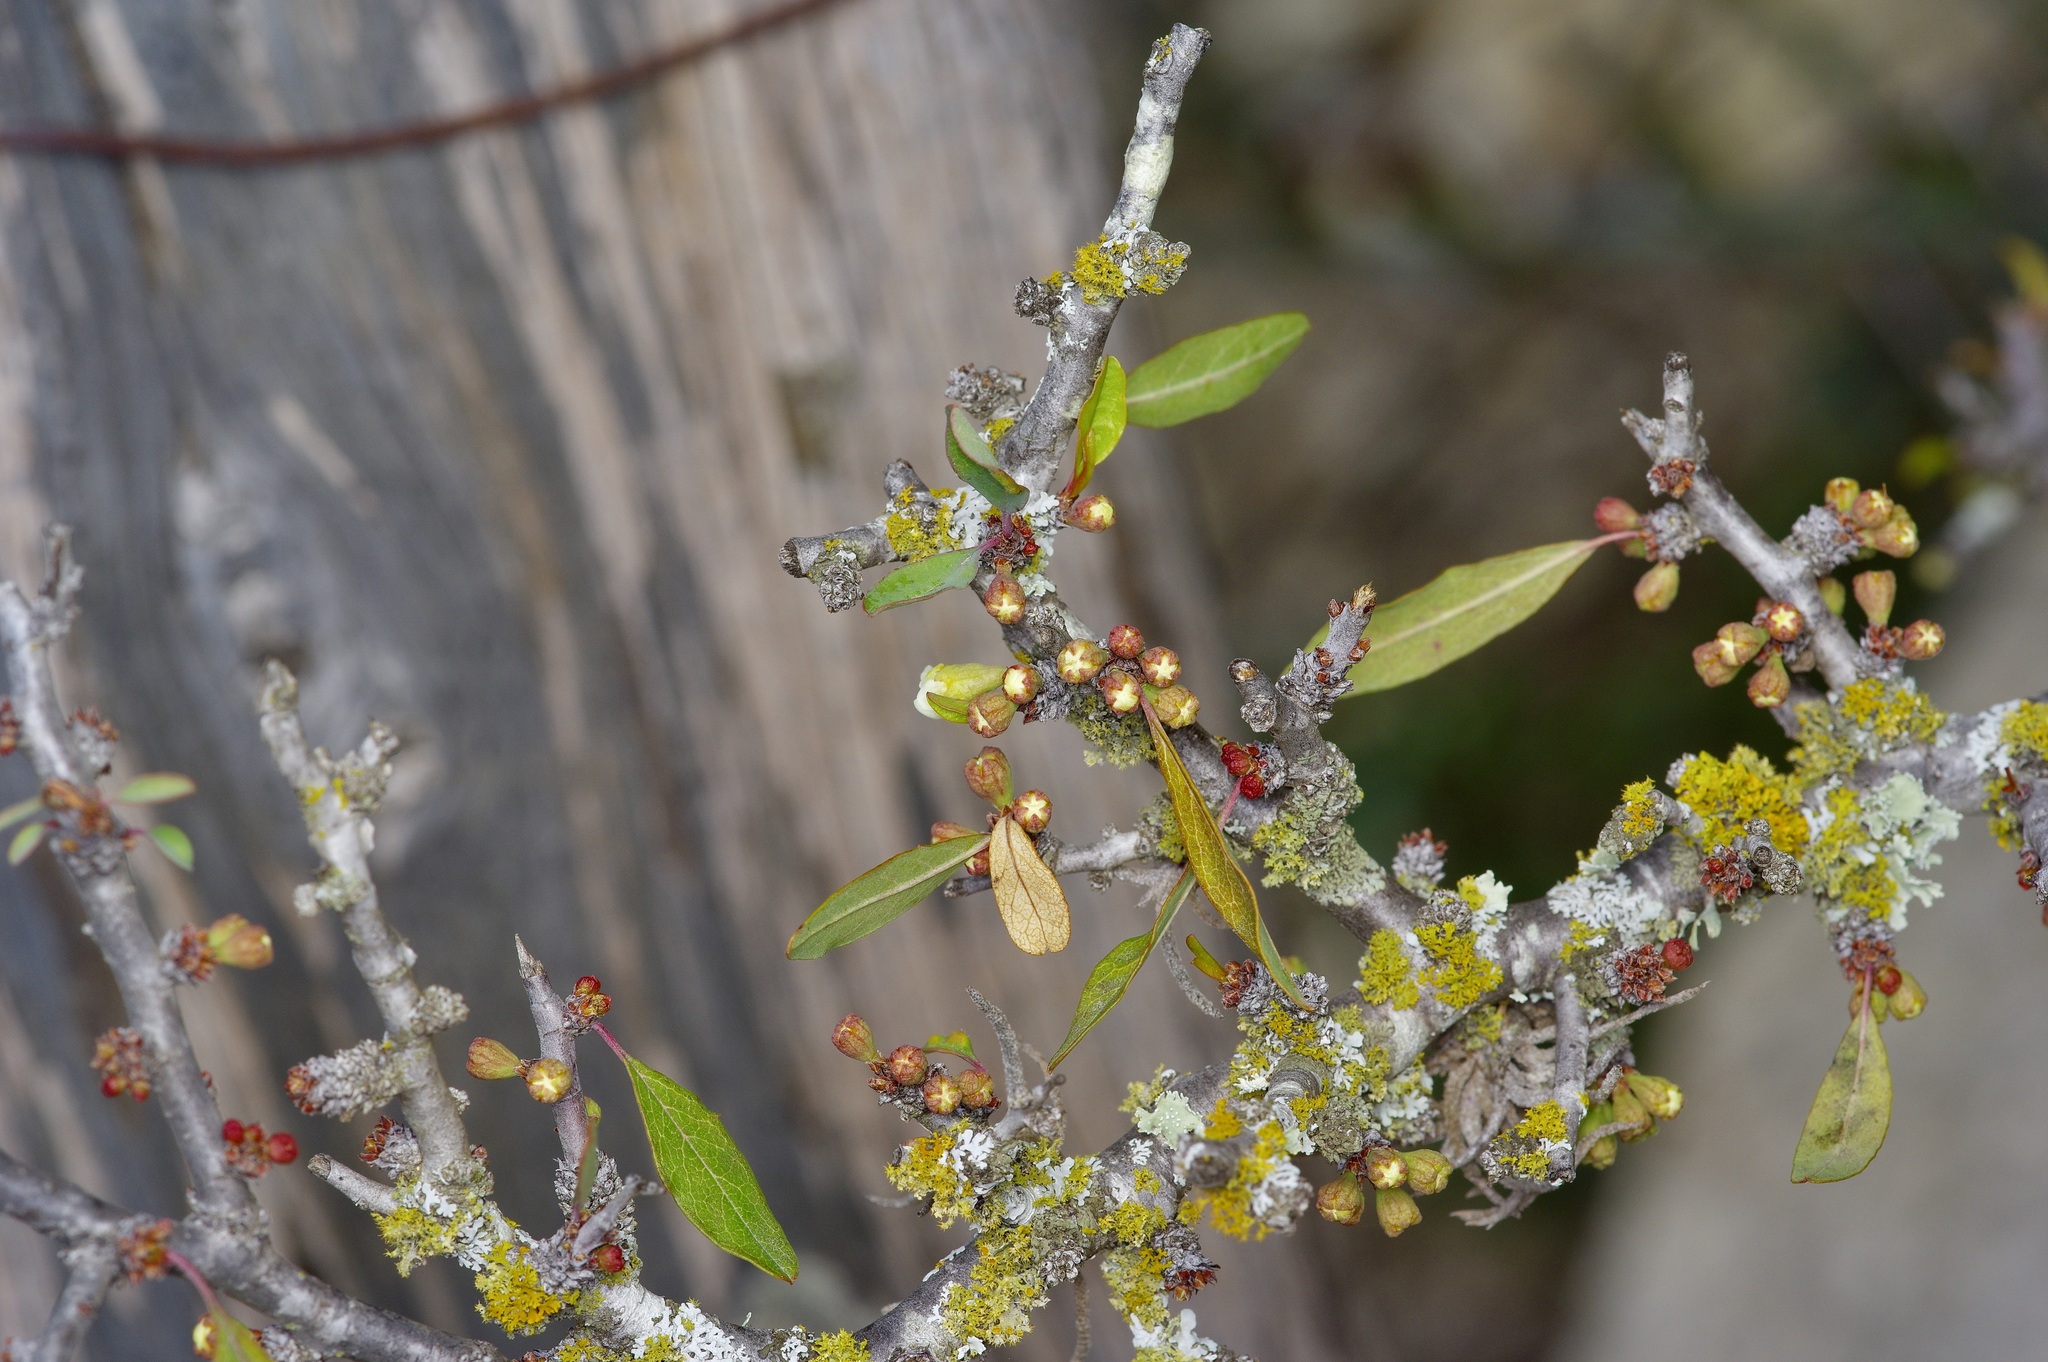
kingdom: Plantae
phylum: Tracheophyta
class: Magnoliopsida
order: Rosales
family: Rosaceae
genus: Prunus
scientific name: Prunus minutiflora
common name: Texas almond
